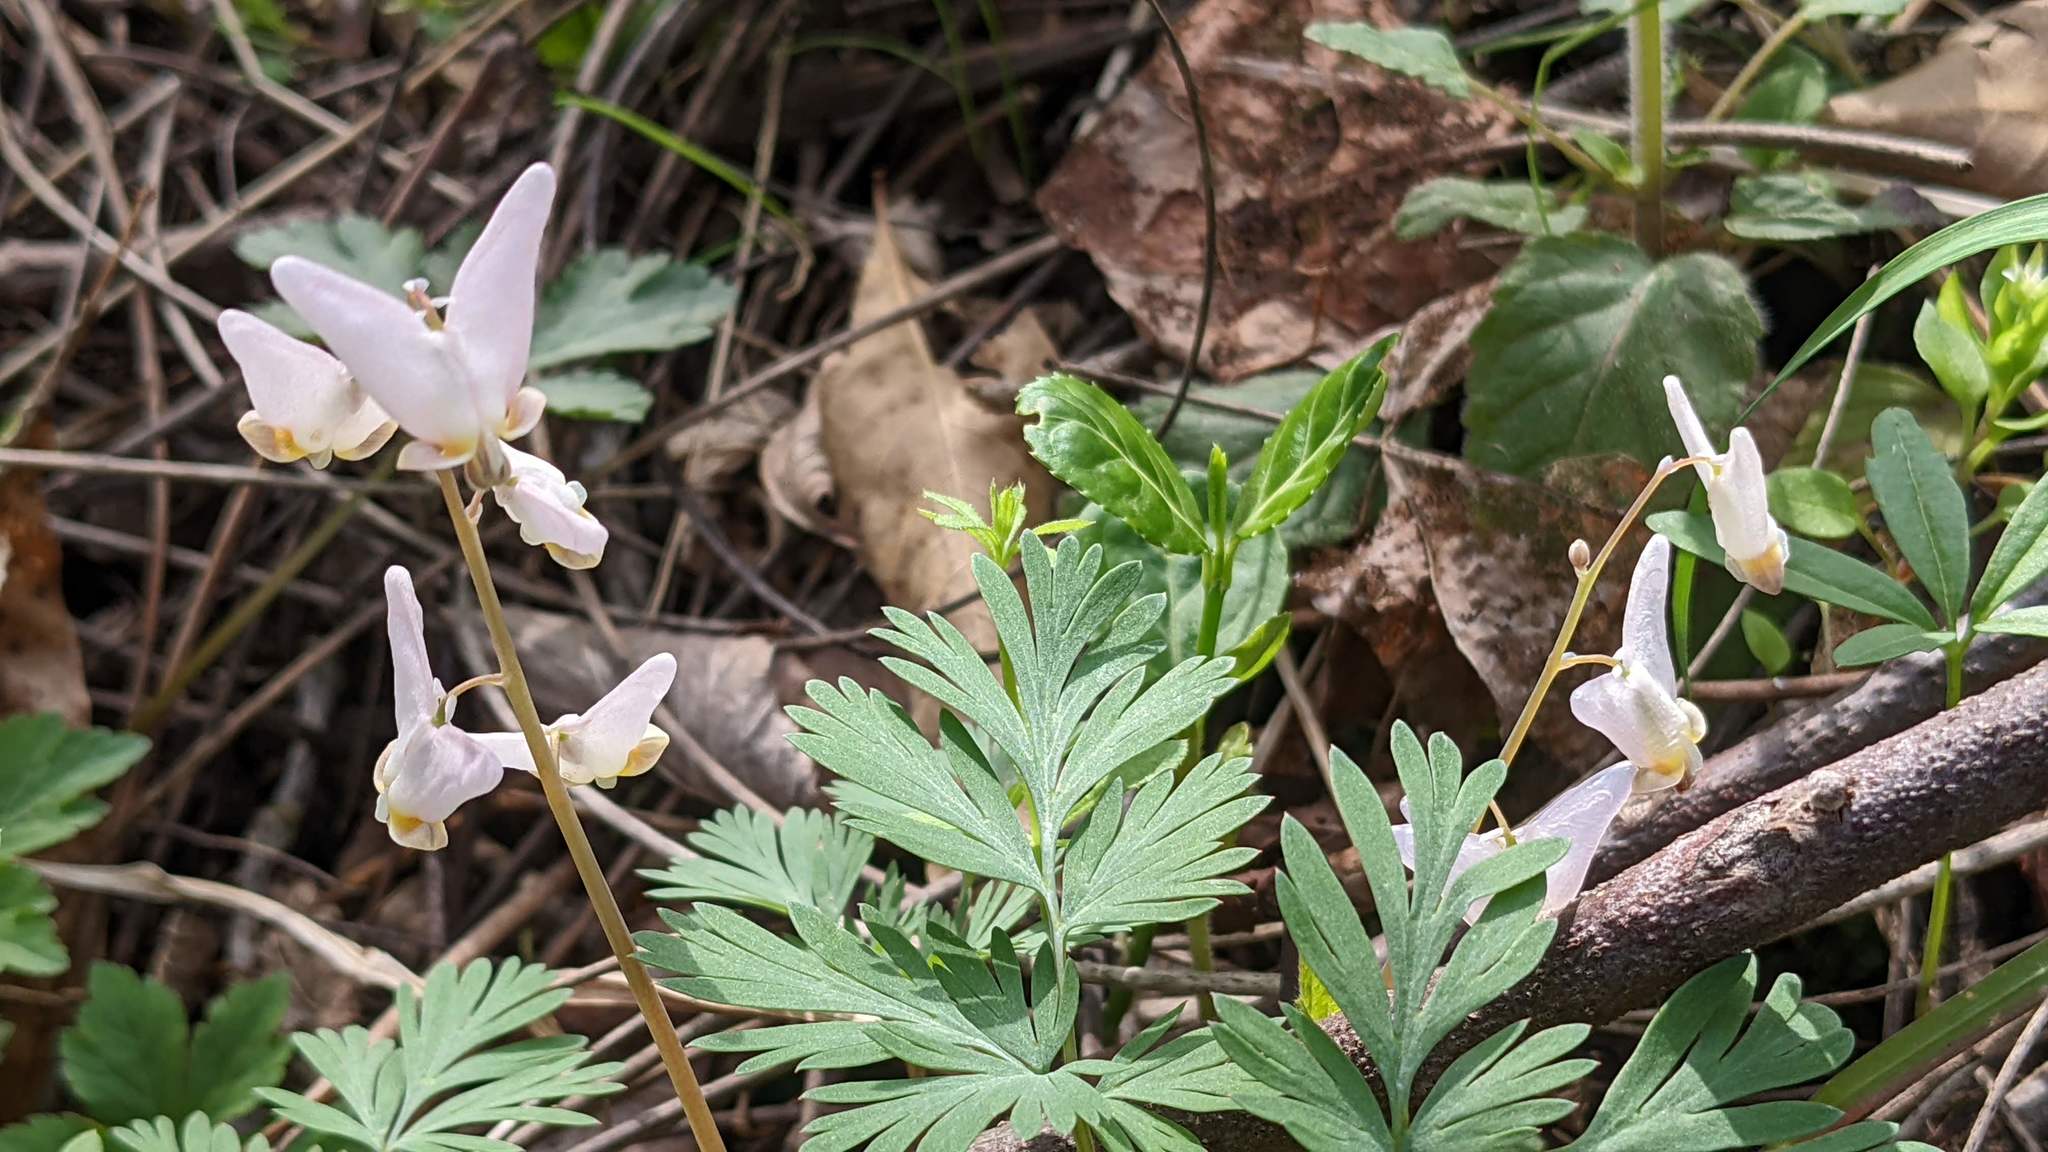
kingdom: Plantae
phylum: Tracheophyta
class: Magnoliopsida
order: Ranunculales
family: Papaveraceae
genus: Dicentra
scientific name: Dicentra cucullaria
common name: Dutchman's breeches
